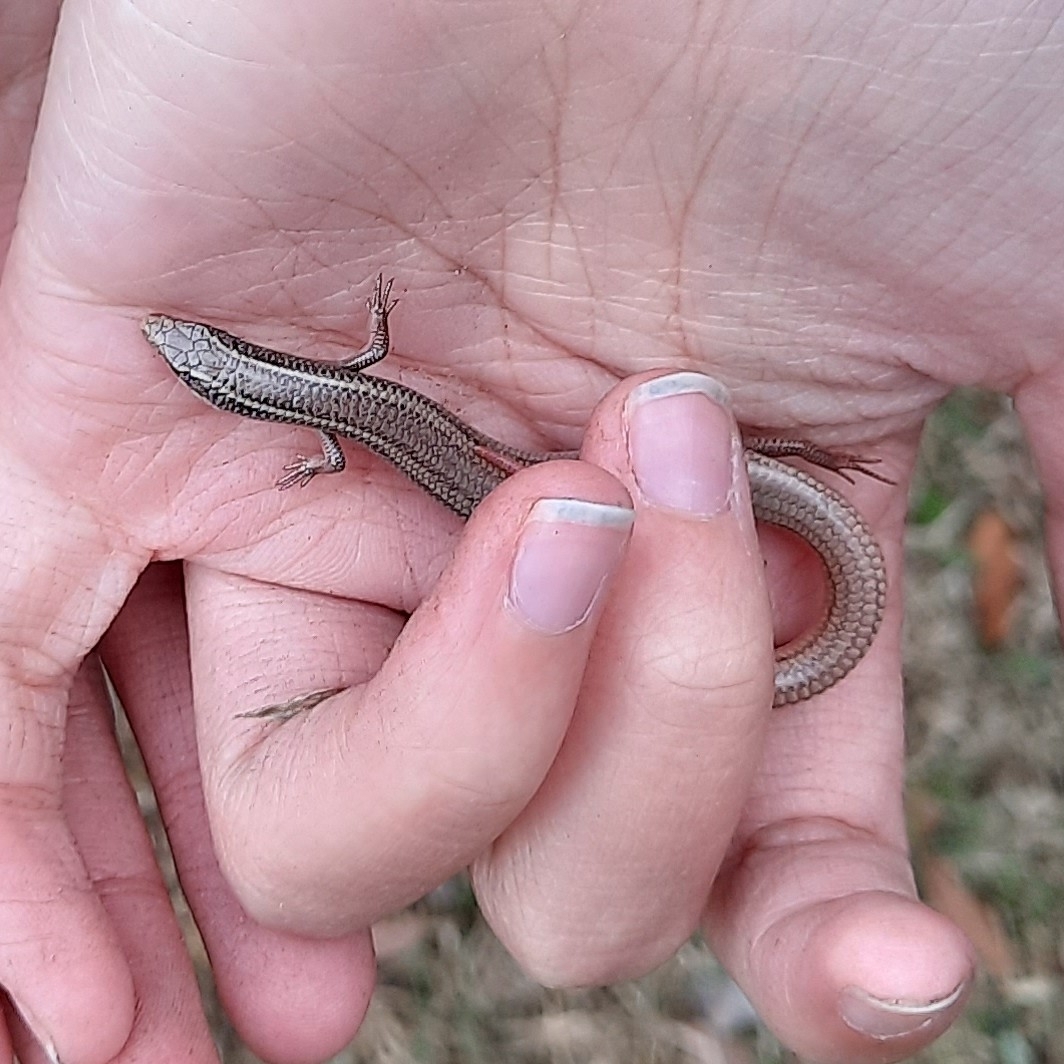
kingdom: Animalia
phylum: Chordata
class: Squamata
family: Scincidae
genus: Plestiodon
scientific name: Plestiodon egregius
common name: Mole skink
